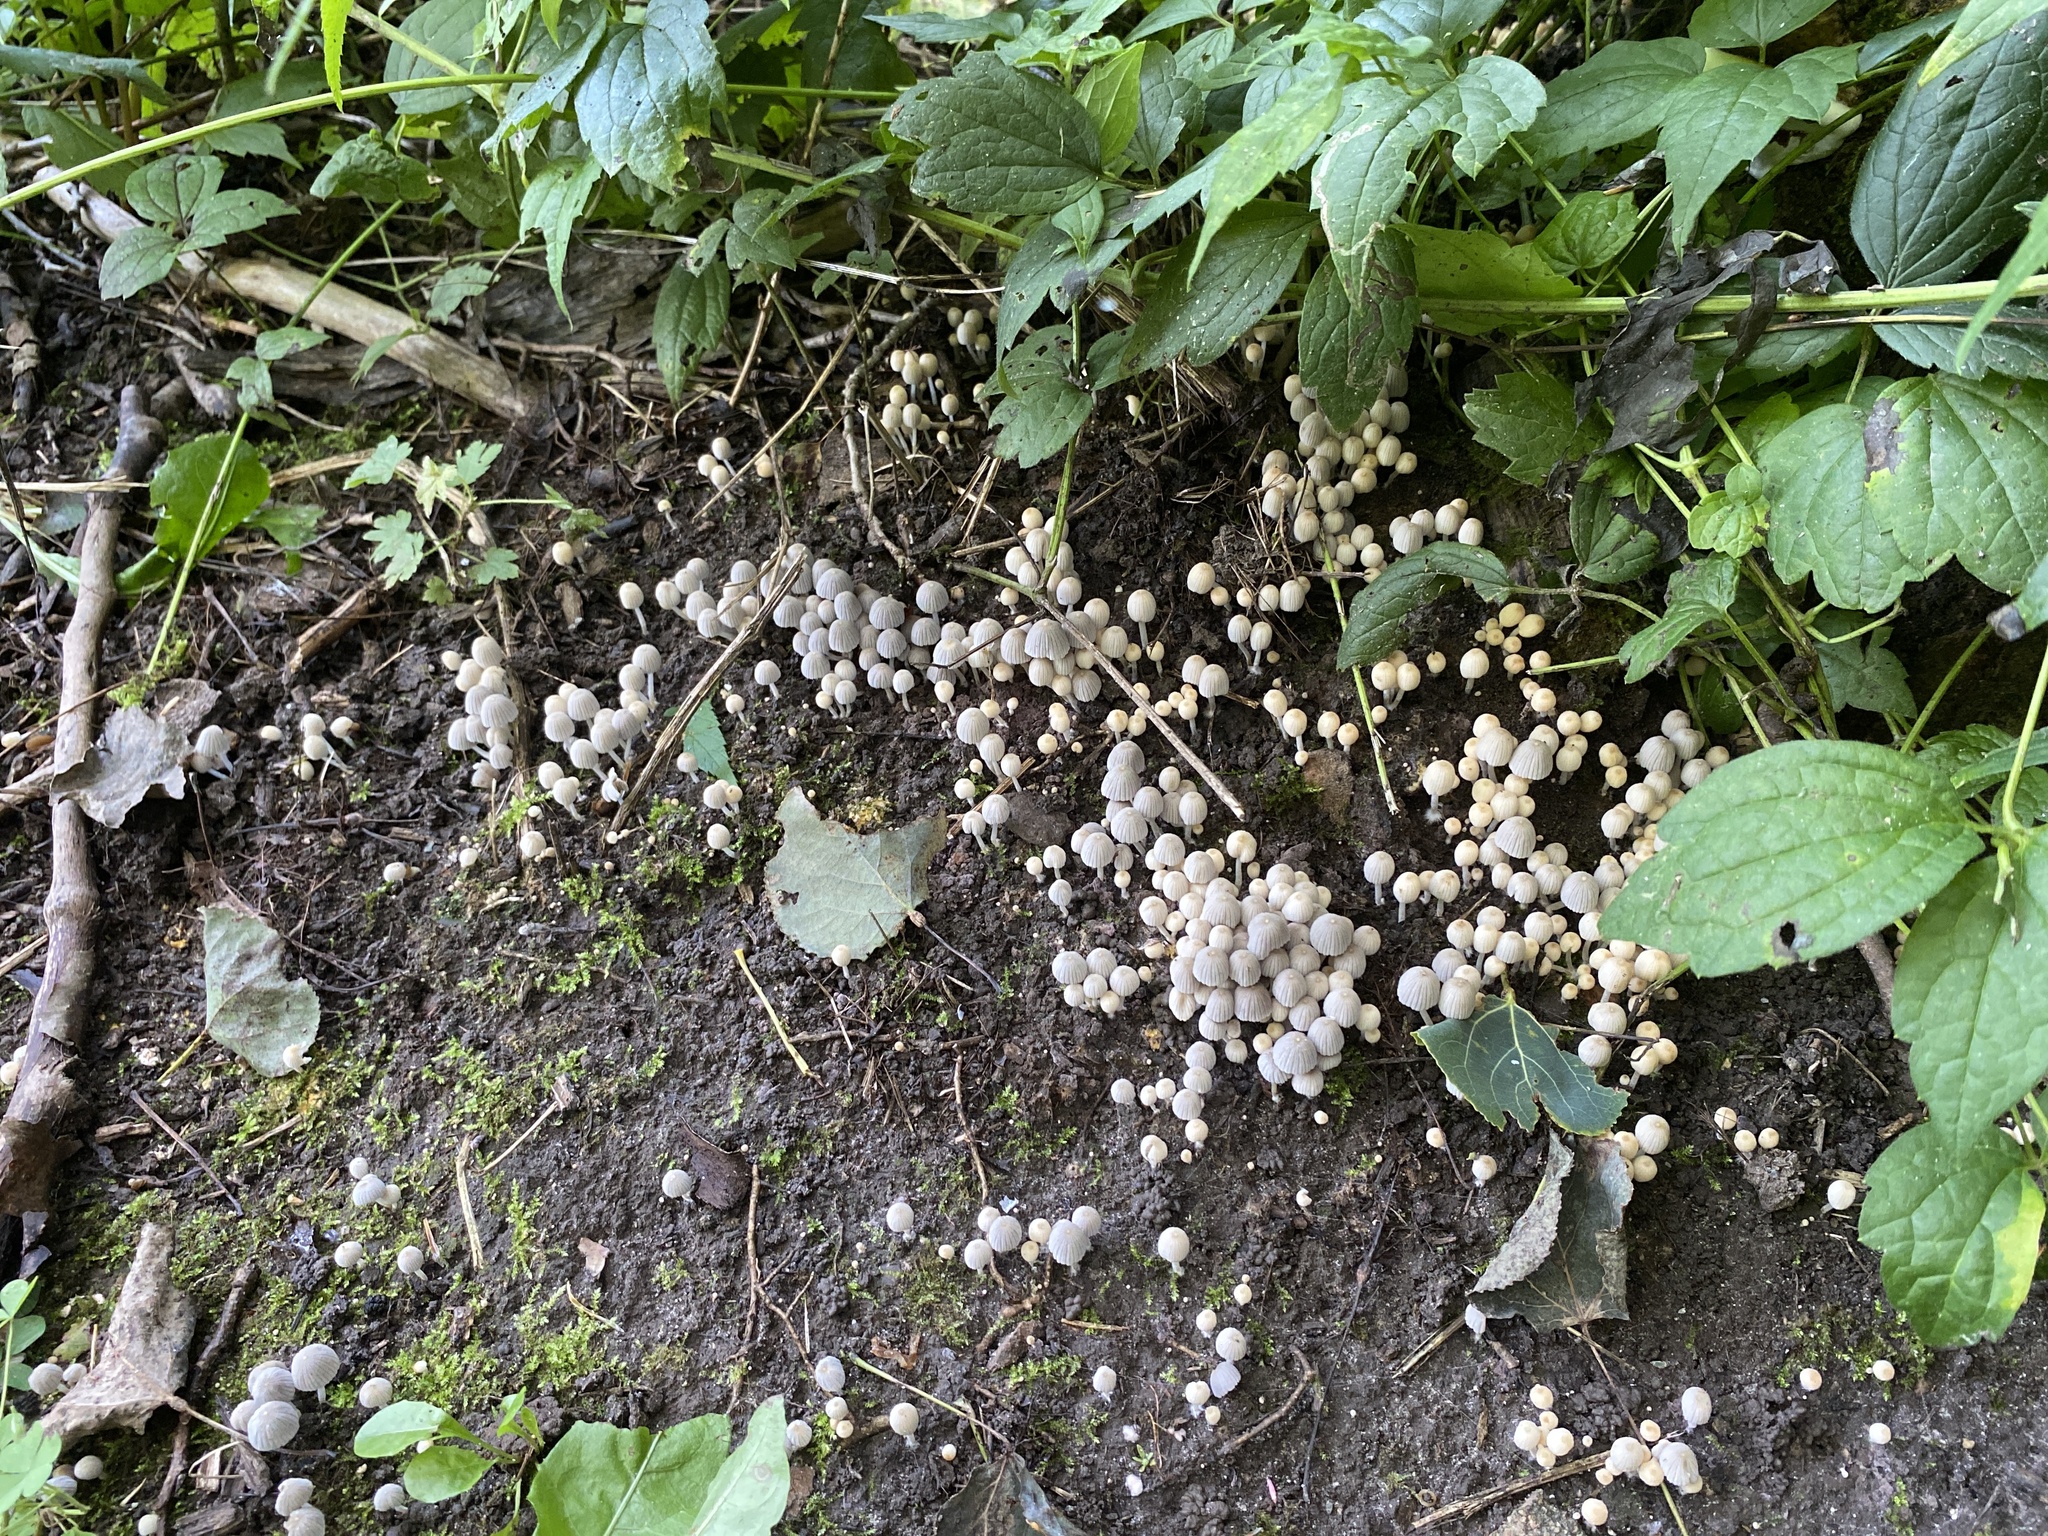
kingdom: Fungi
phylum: Basidiomycota
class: Agaricomycetes
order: Agaricales
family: Psathyrellaceae
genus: Coprinellus
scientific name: Coprinellus disseminatus
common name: Fairies' bonnets
